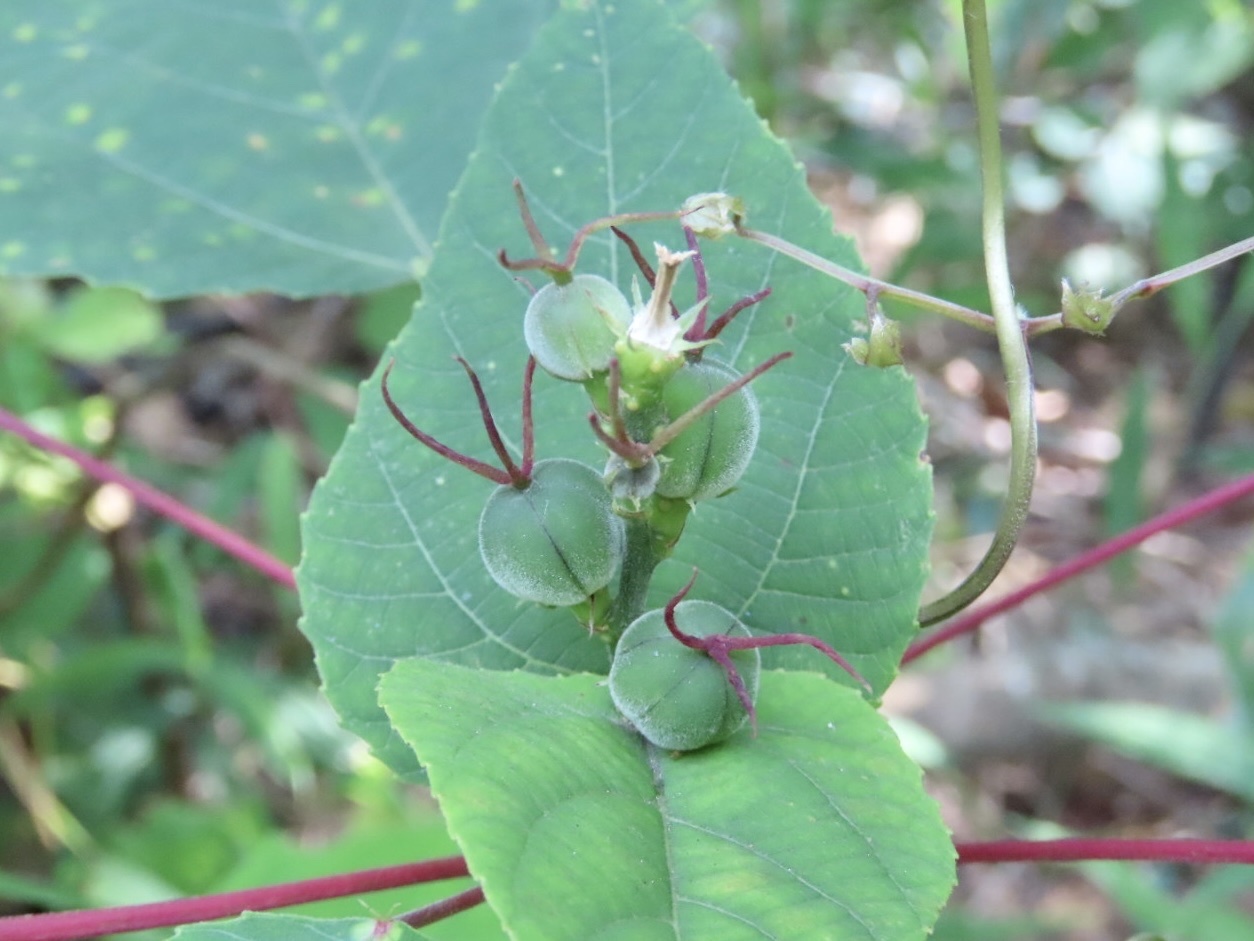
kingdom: Plantae
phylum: Tracheophyta
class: Magnoliopsida
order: Malpighiales
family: Euphorbiaceae
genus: Alchornea
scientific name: Alchornea trewioides
